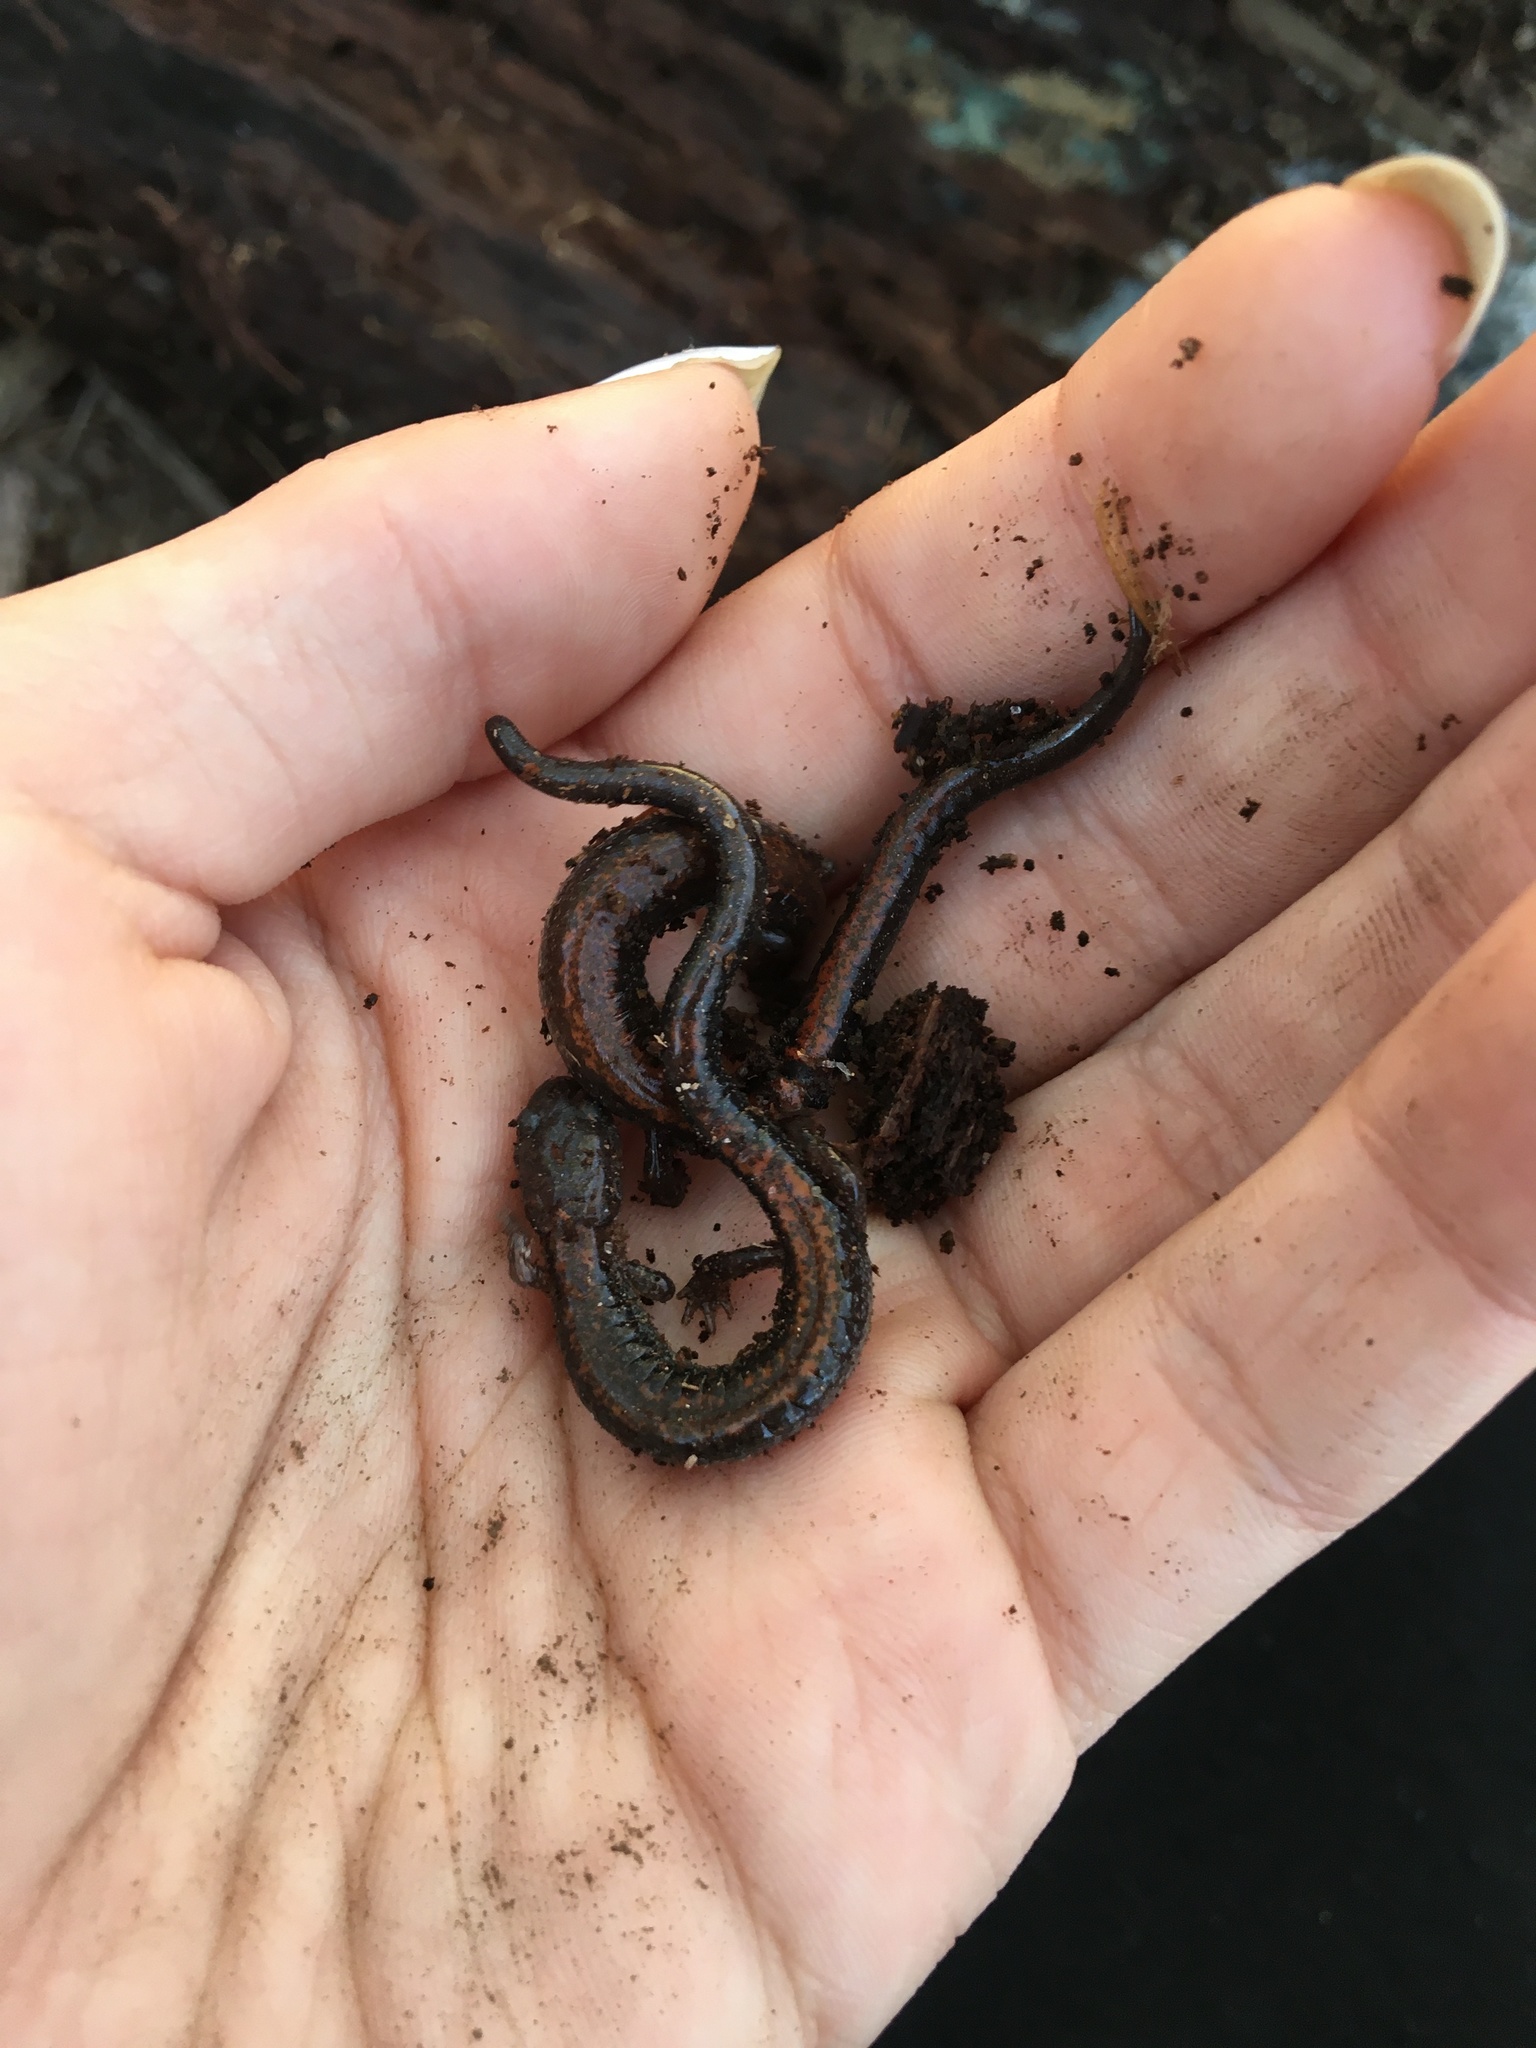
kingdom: Animalia
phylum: Chordata
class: Amphibia
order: Caudata
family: Plethodontidae
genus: Plethodon
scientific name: Plethodon cinereus
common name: Redback salamander
